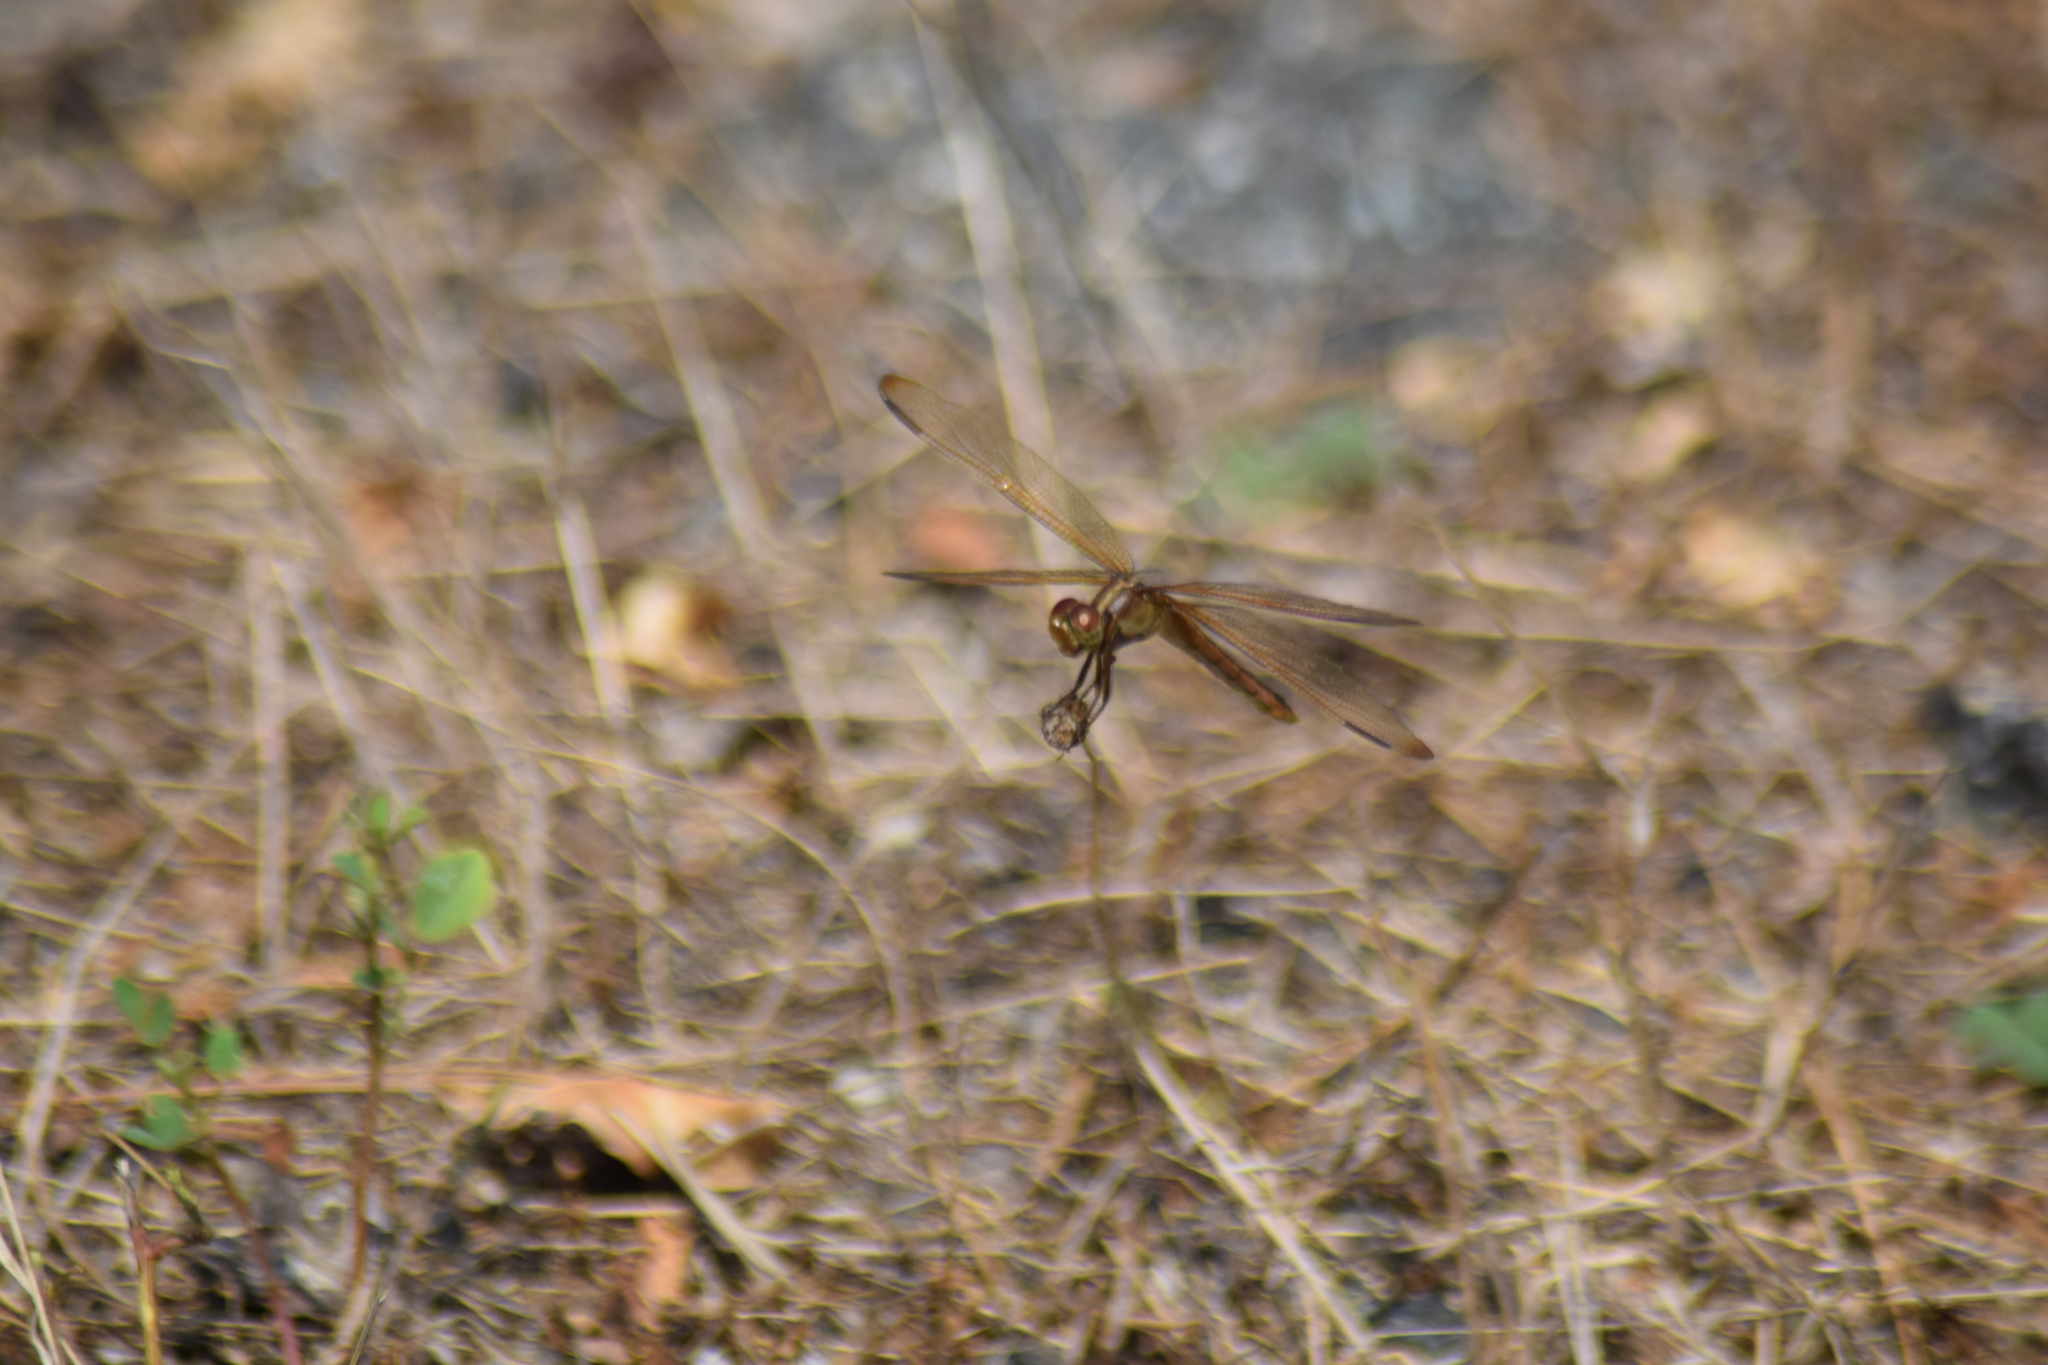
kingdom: Animalia
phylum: Arthropoda
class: Insecta
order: Odonata
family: Libellulidae
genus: Libellula
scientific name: Libellula needhami
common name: Needham's skimmer
